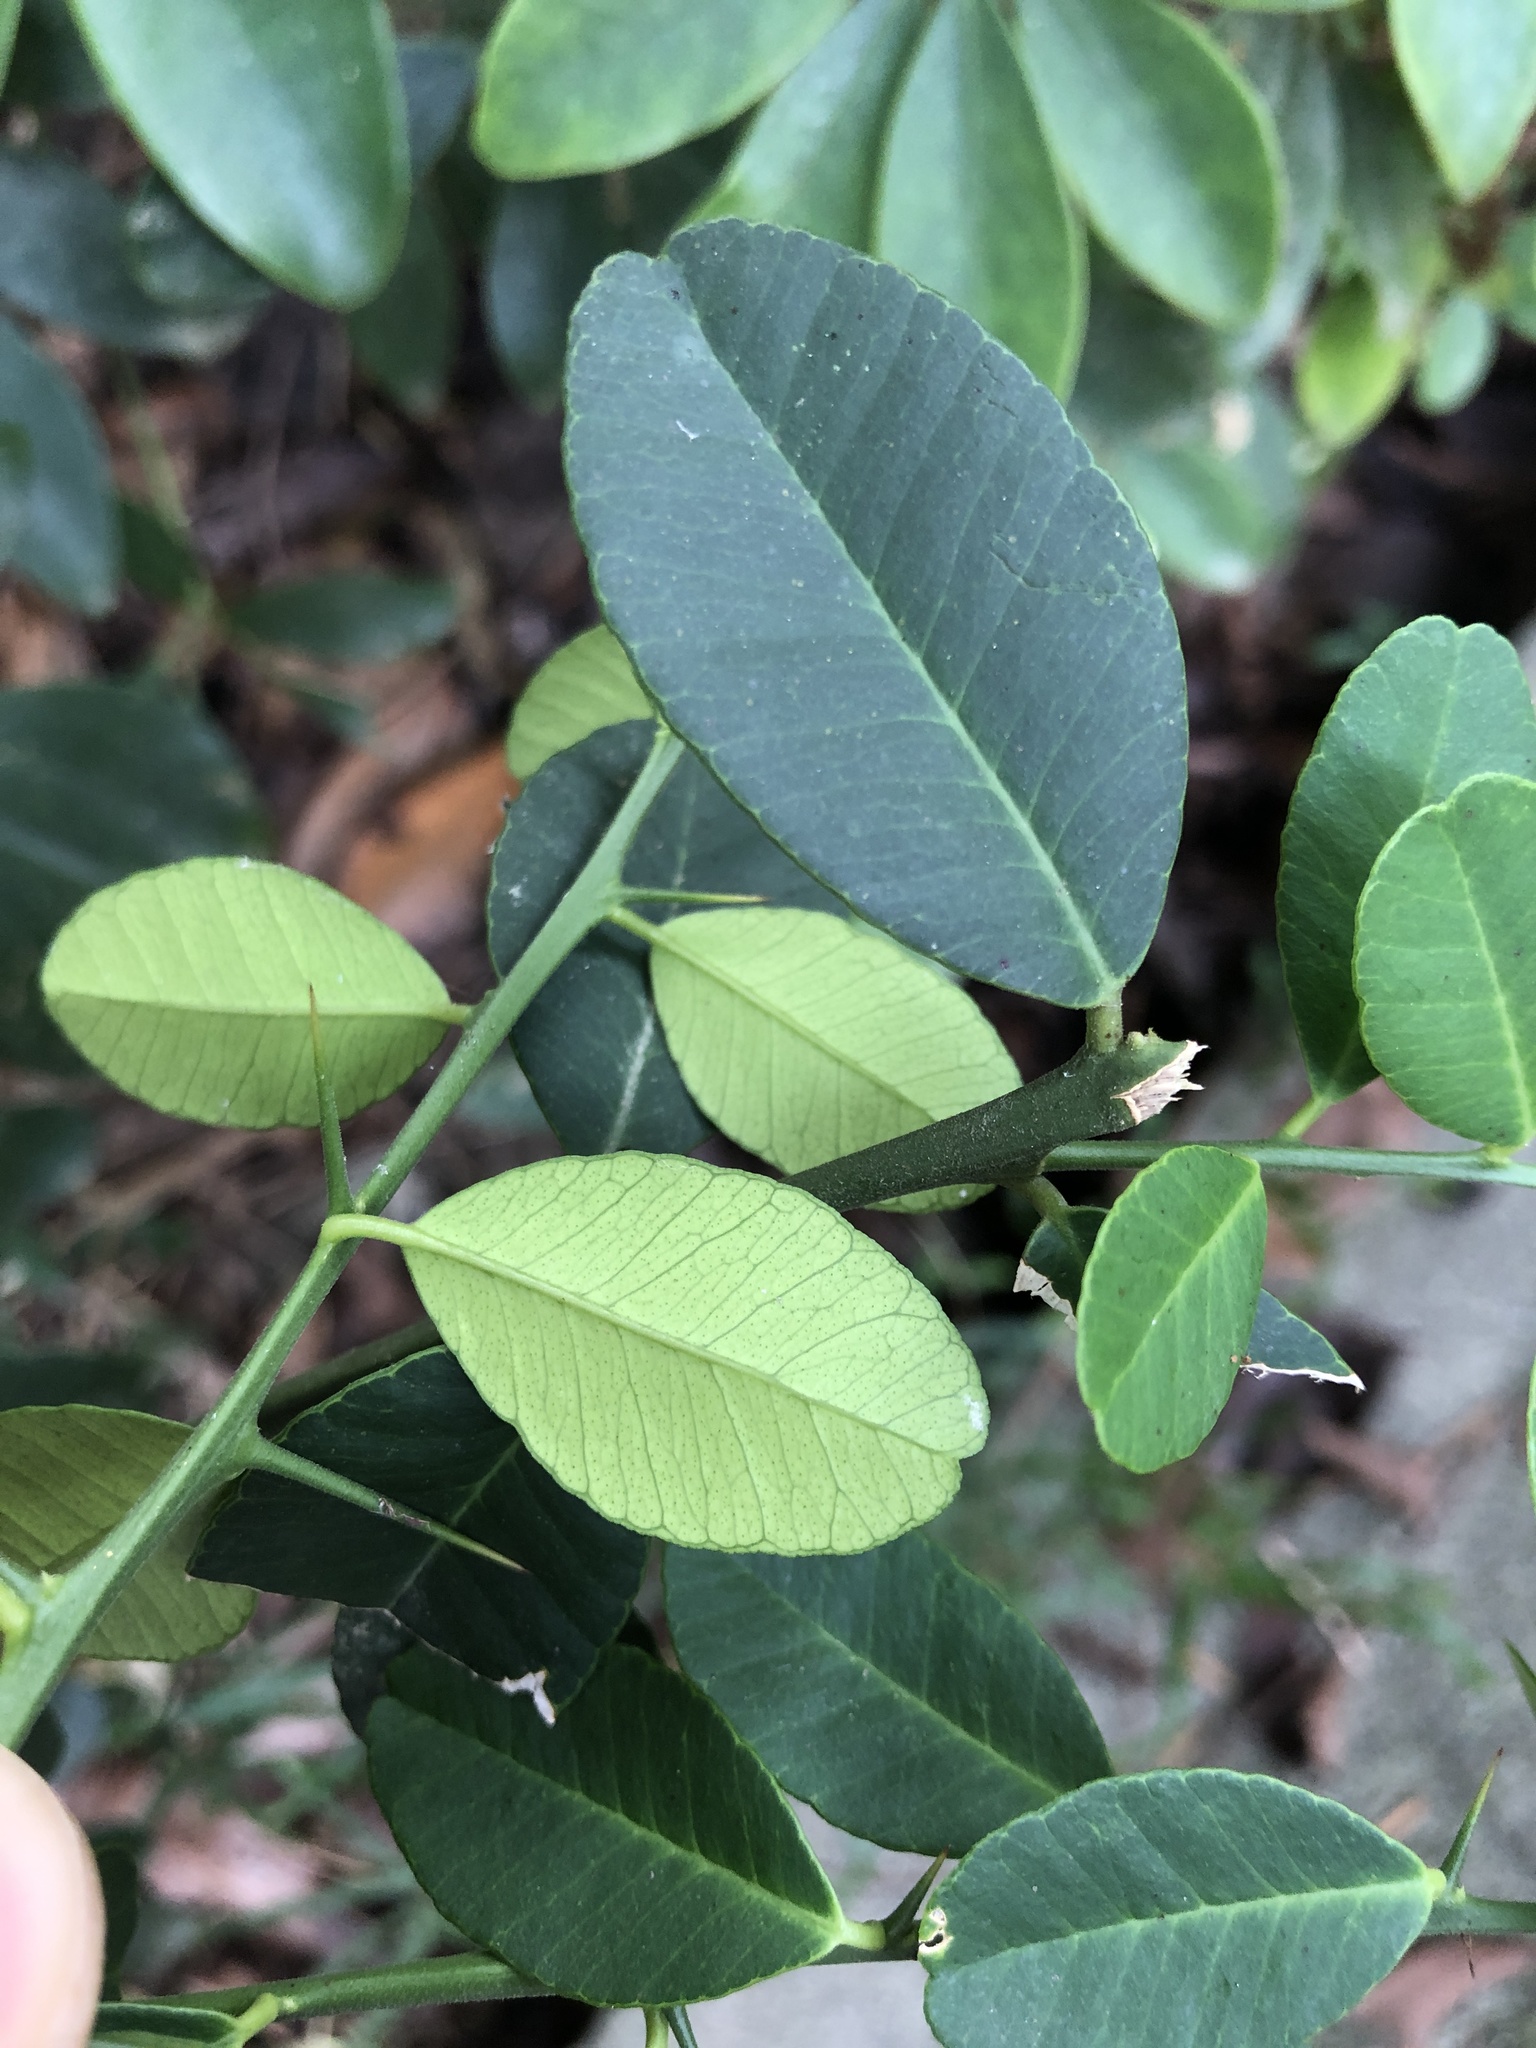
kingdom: Plantae
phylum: Tracheophyta
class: Magnoliopsida
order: Sapindales
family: Rutaceae
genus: Atalantia
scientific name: Atalantia buxifolia
